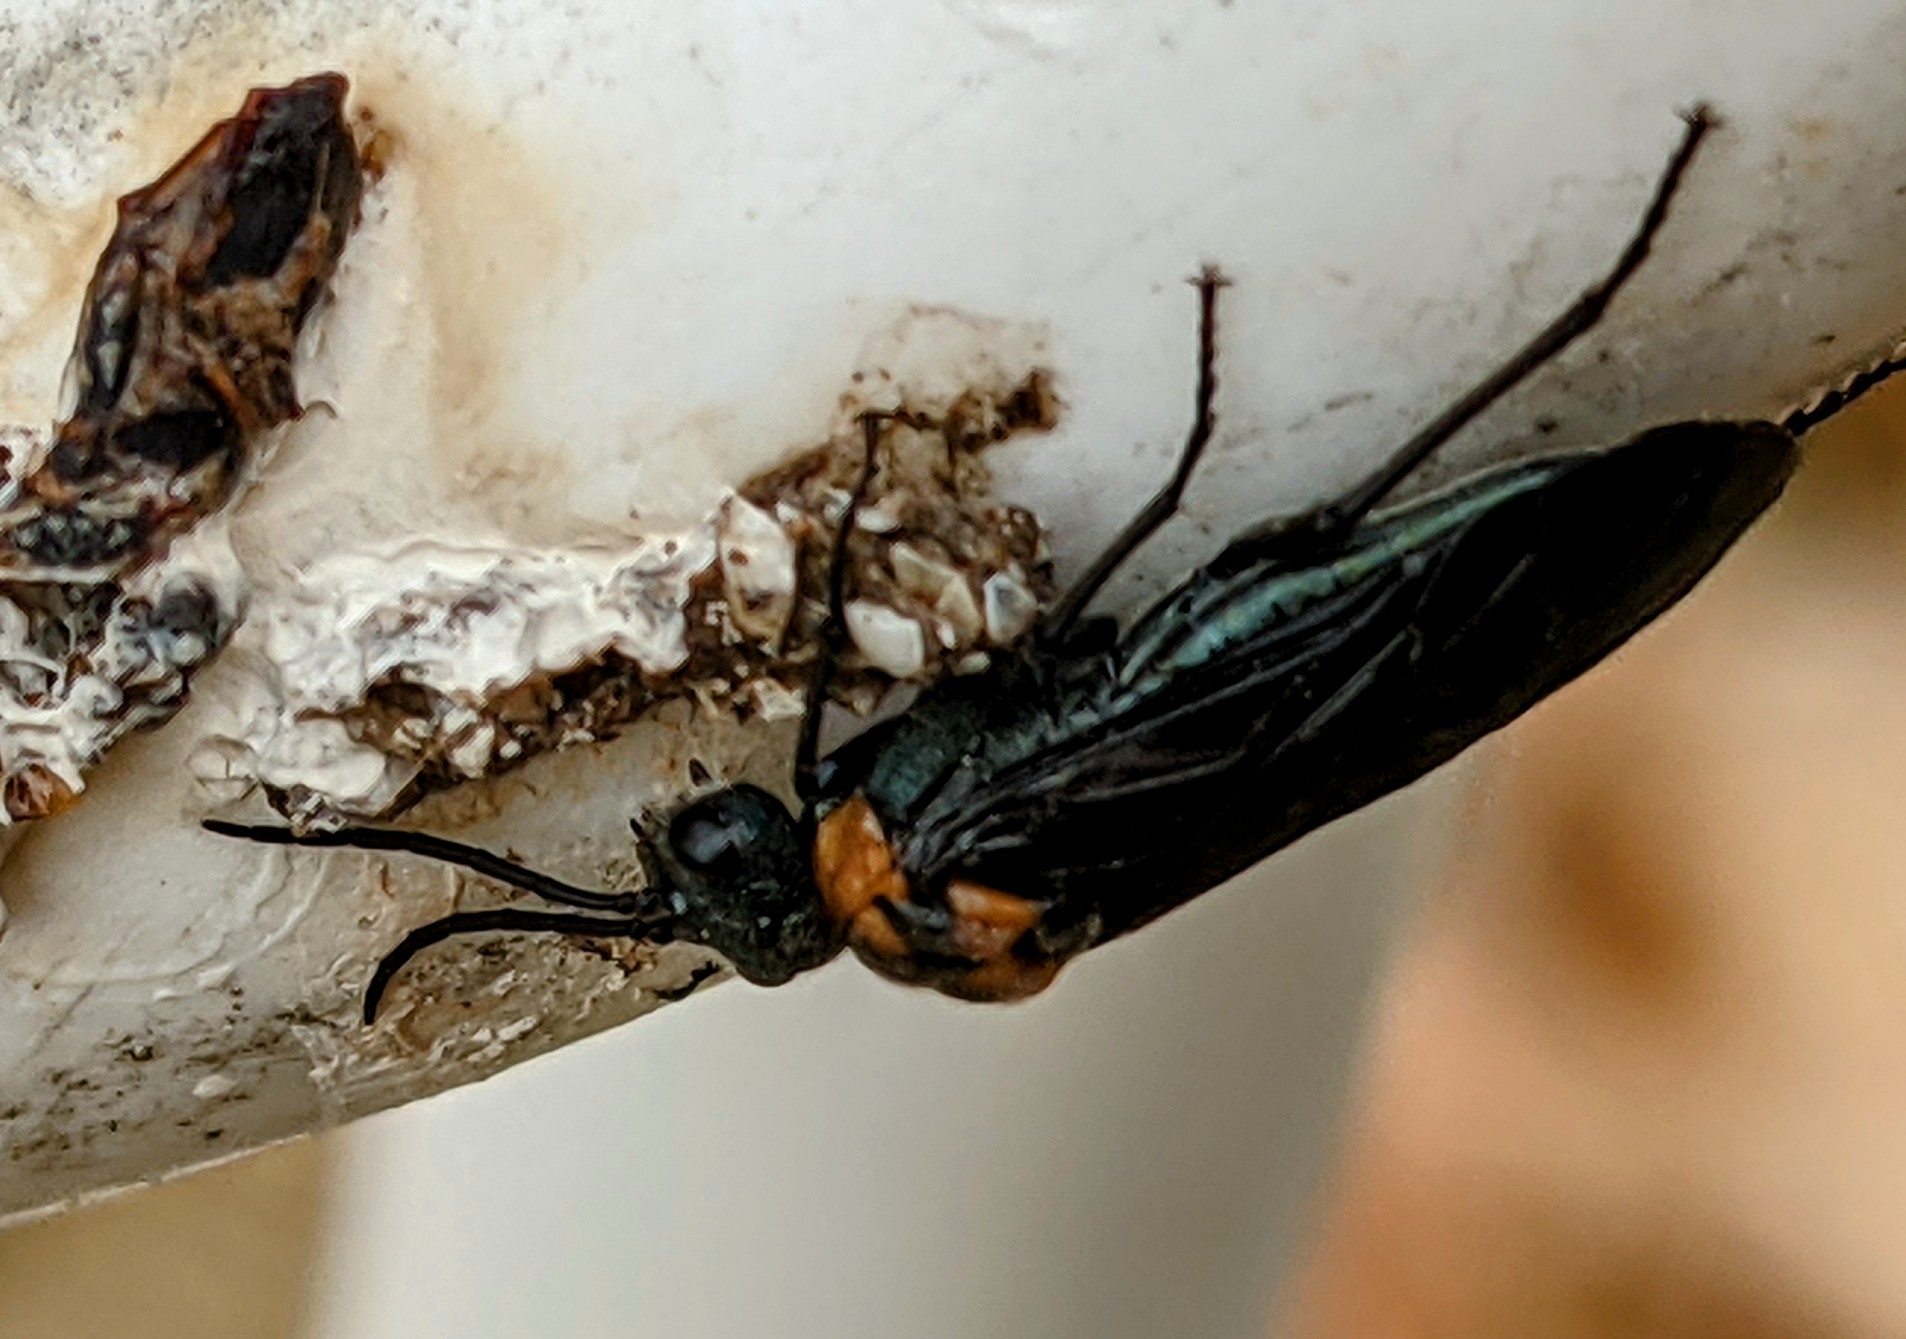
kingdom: Animalia
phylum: Arthropoda
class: Insecta
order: Hymenoptera
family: Tenthredinidae
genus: Dolerus
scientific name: Dolerus unicolor
